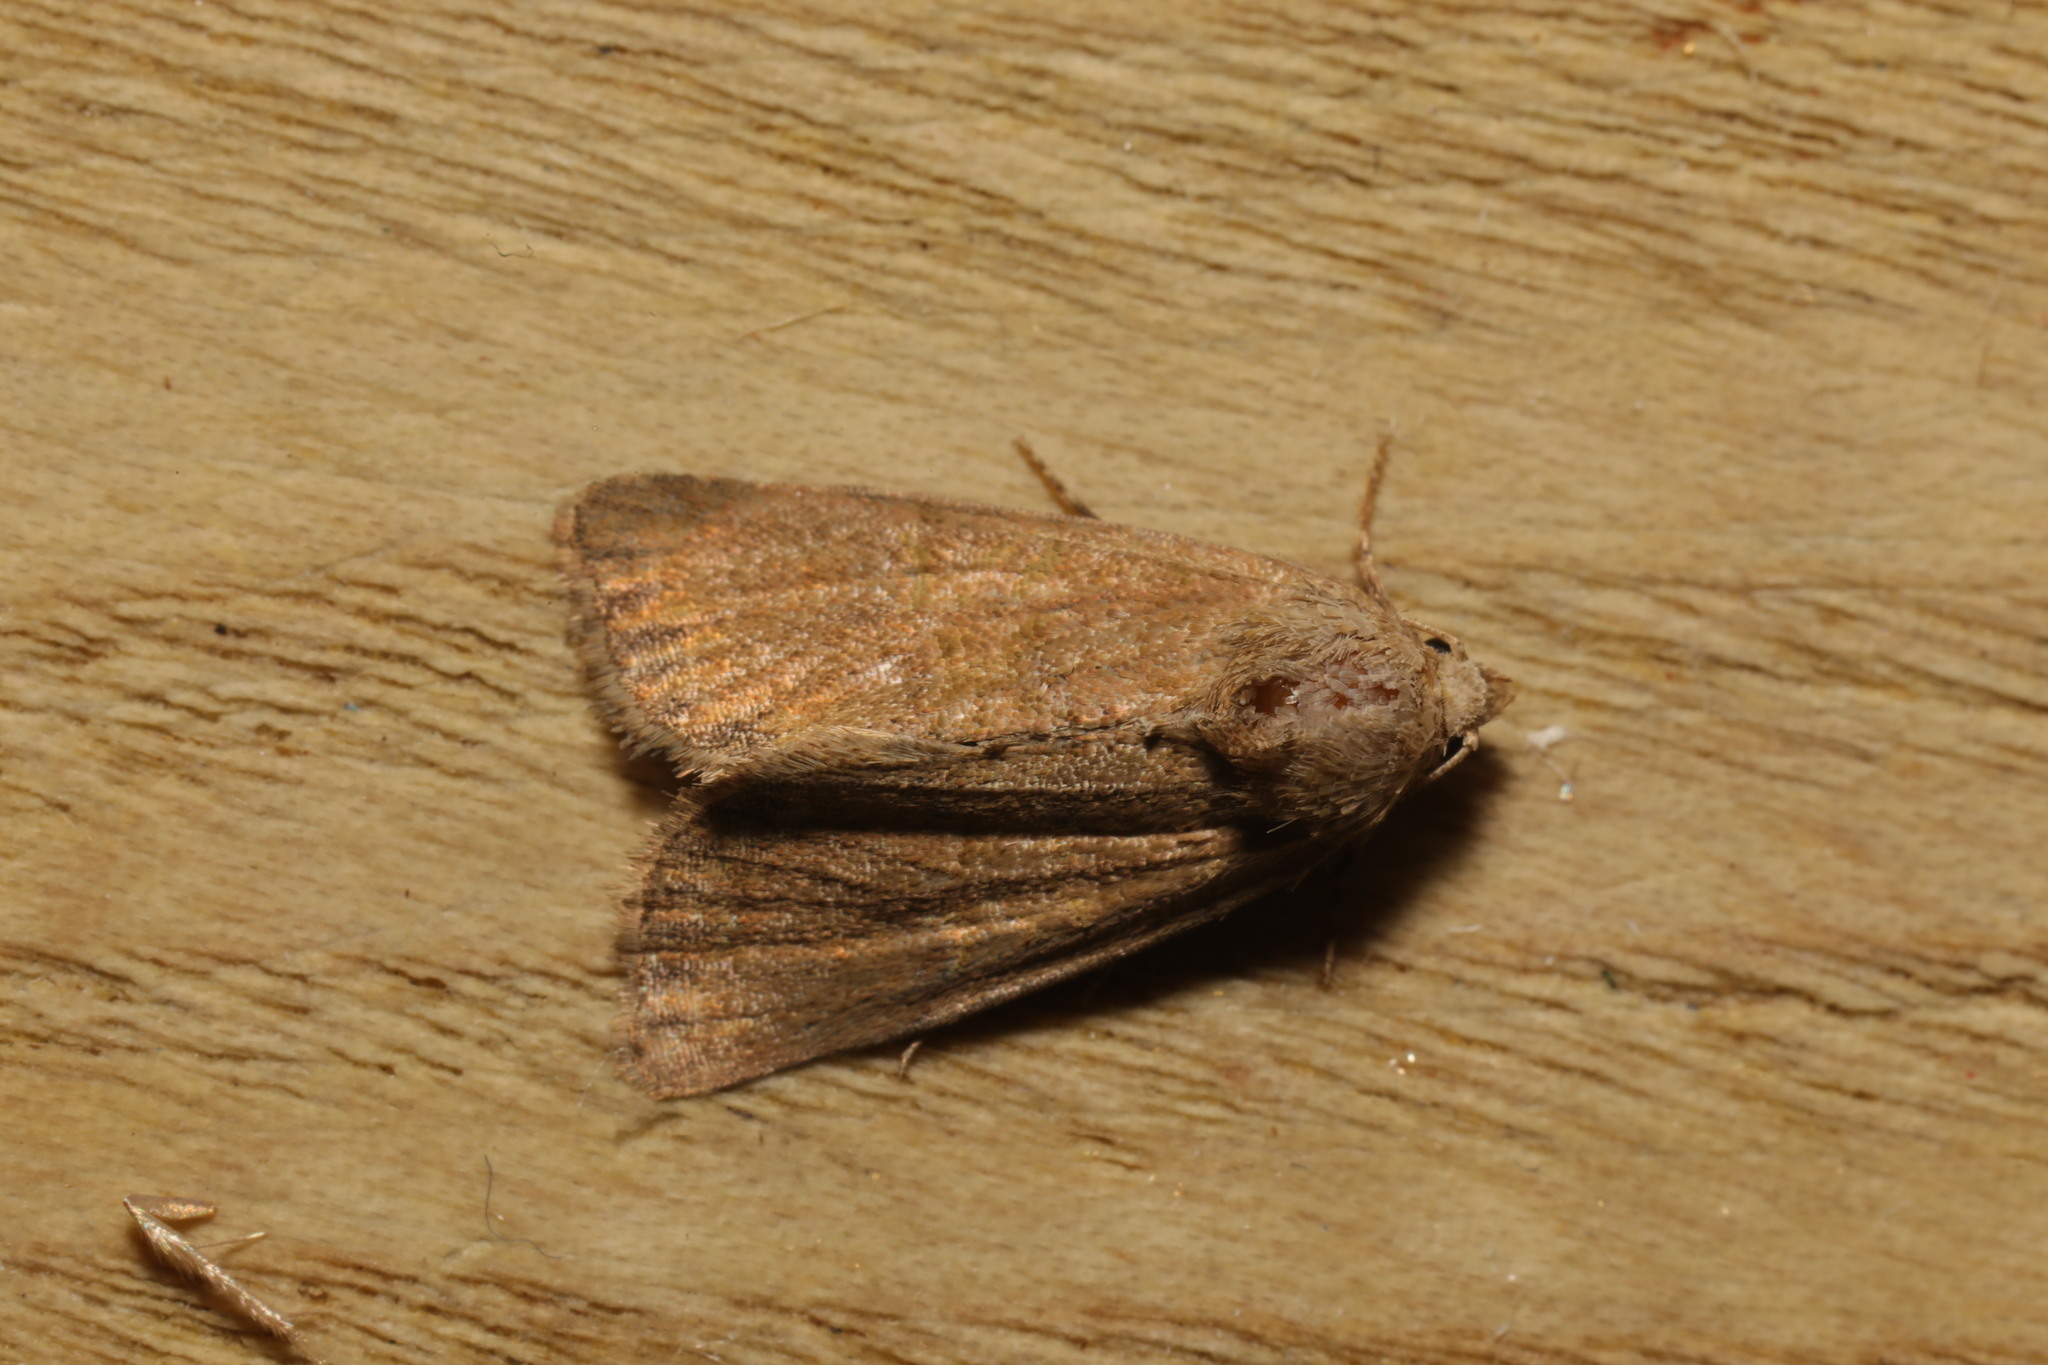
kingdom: Animalia
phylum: Arthropoda
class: Insecta
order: Lepidoptera
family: Noctuidae
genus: Mesoligia
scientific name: Mesoligia furuncula
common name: Cloaked minor
